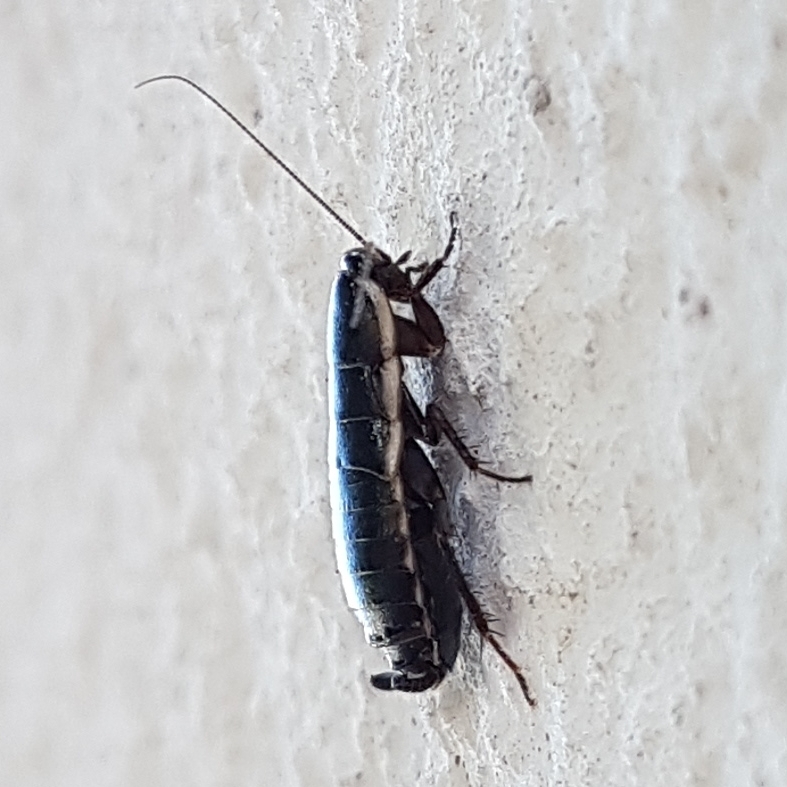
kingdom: Animalia
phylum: Arthropoda
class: Insecta
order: Blattodea
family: Ectobiidae
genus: Loboptera
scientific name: Loboptera decipiens
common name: Lobe-winged cockroach
